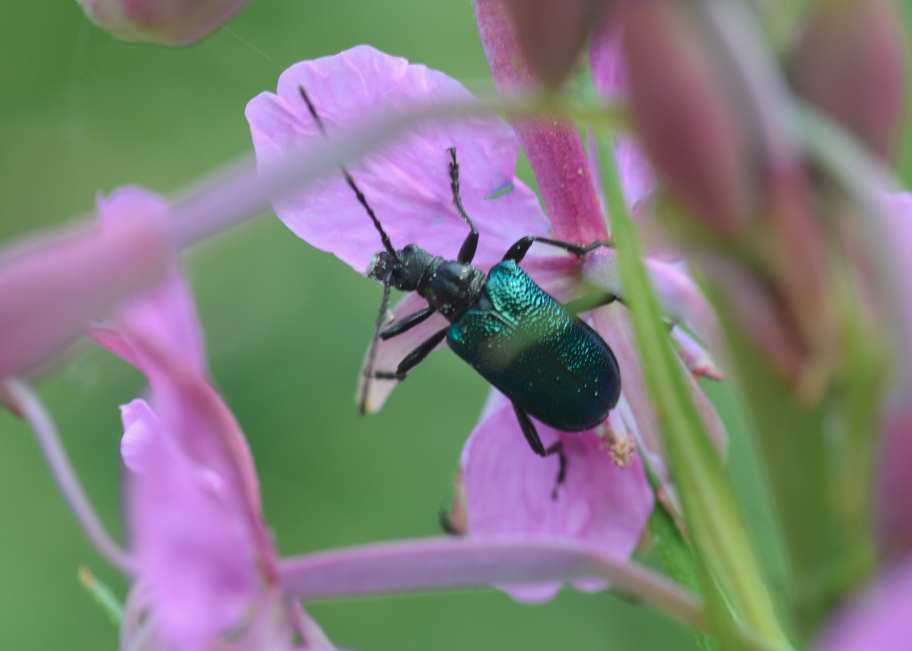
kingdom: Animalia
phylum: Arthropoda
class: Insecta
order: Coleoptera
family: Cerambycidae
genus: Gaurotes
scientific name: Gaurotes virginea
